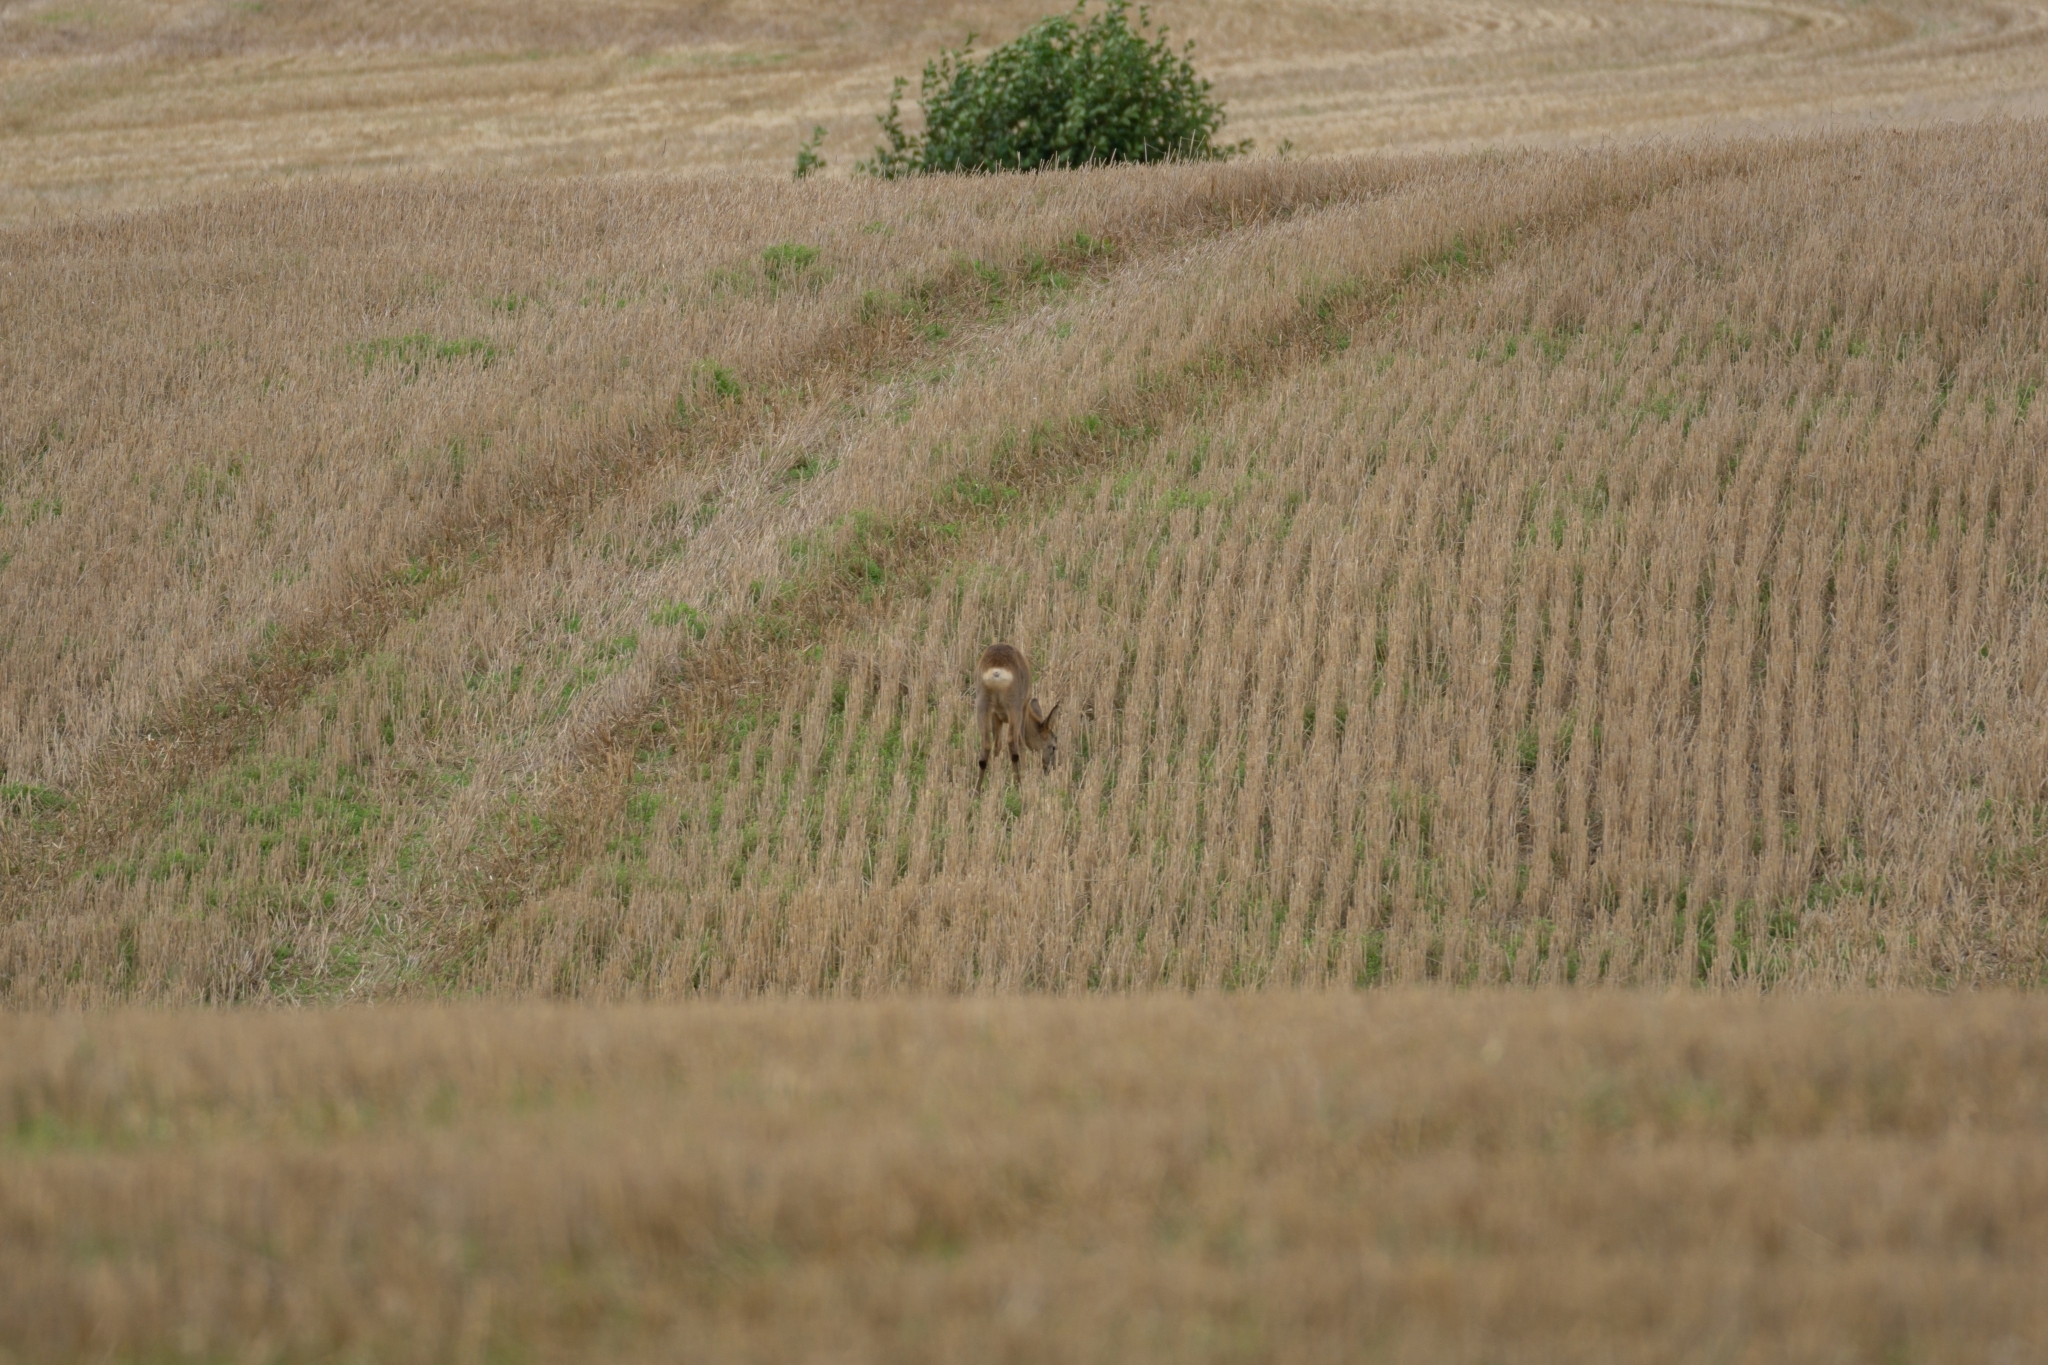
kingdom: Animalia
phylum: Chordata
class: Mammalia
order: Artiodactyla
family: Cervidae
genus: Capreolus
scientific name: Capreolus capreolus
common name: Western roe deer
